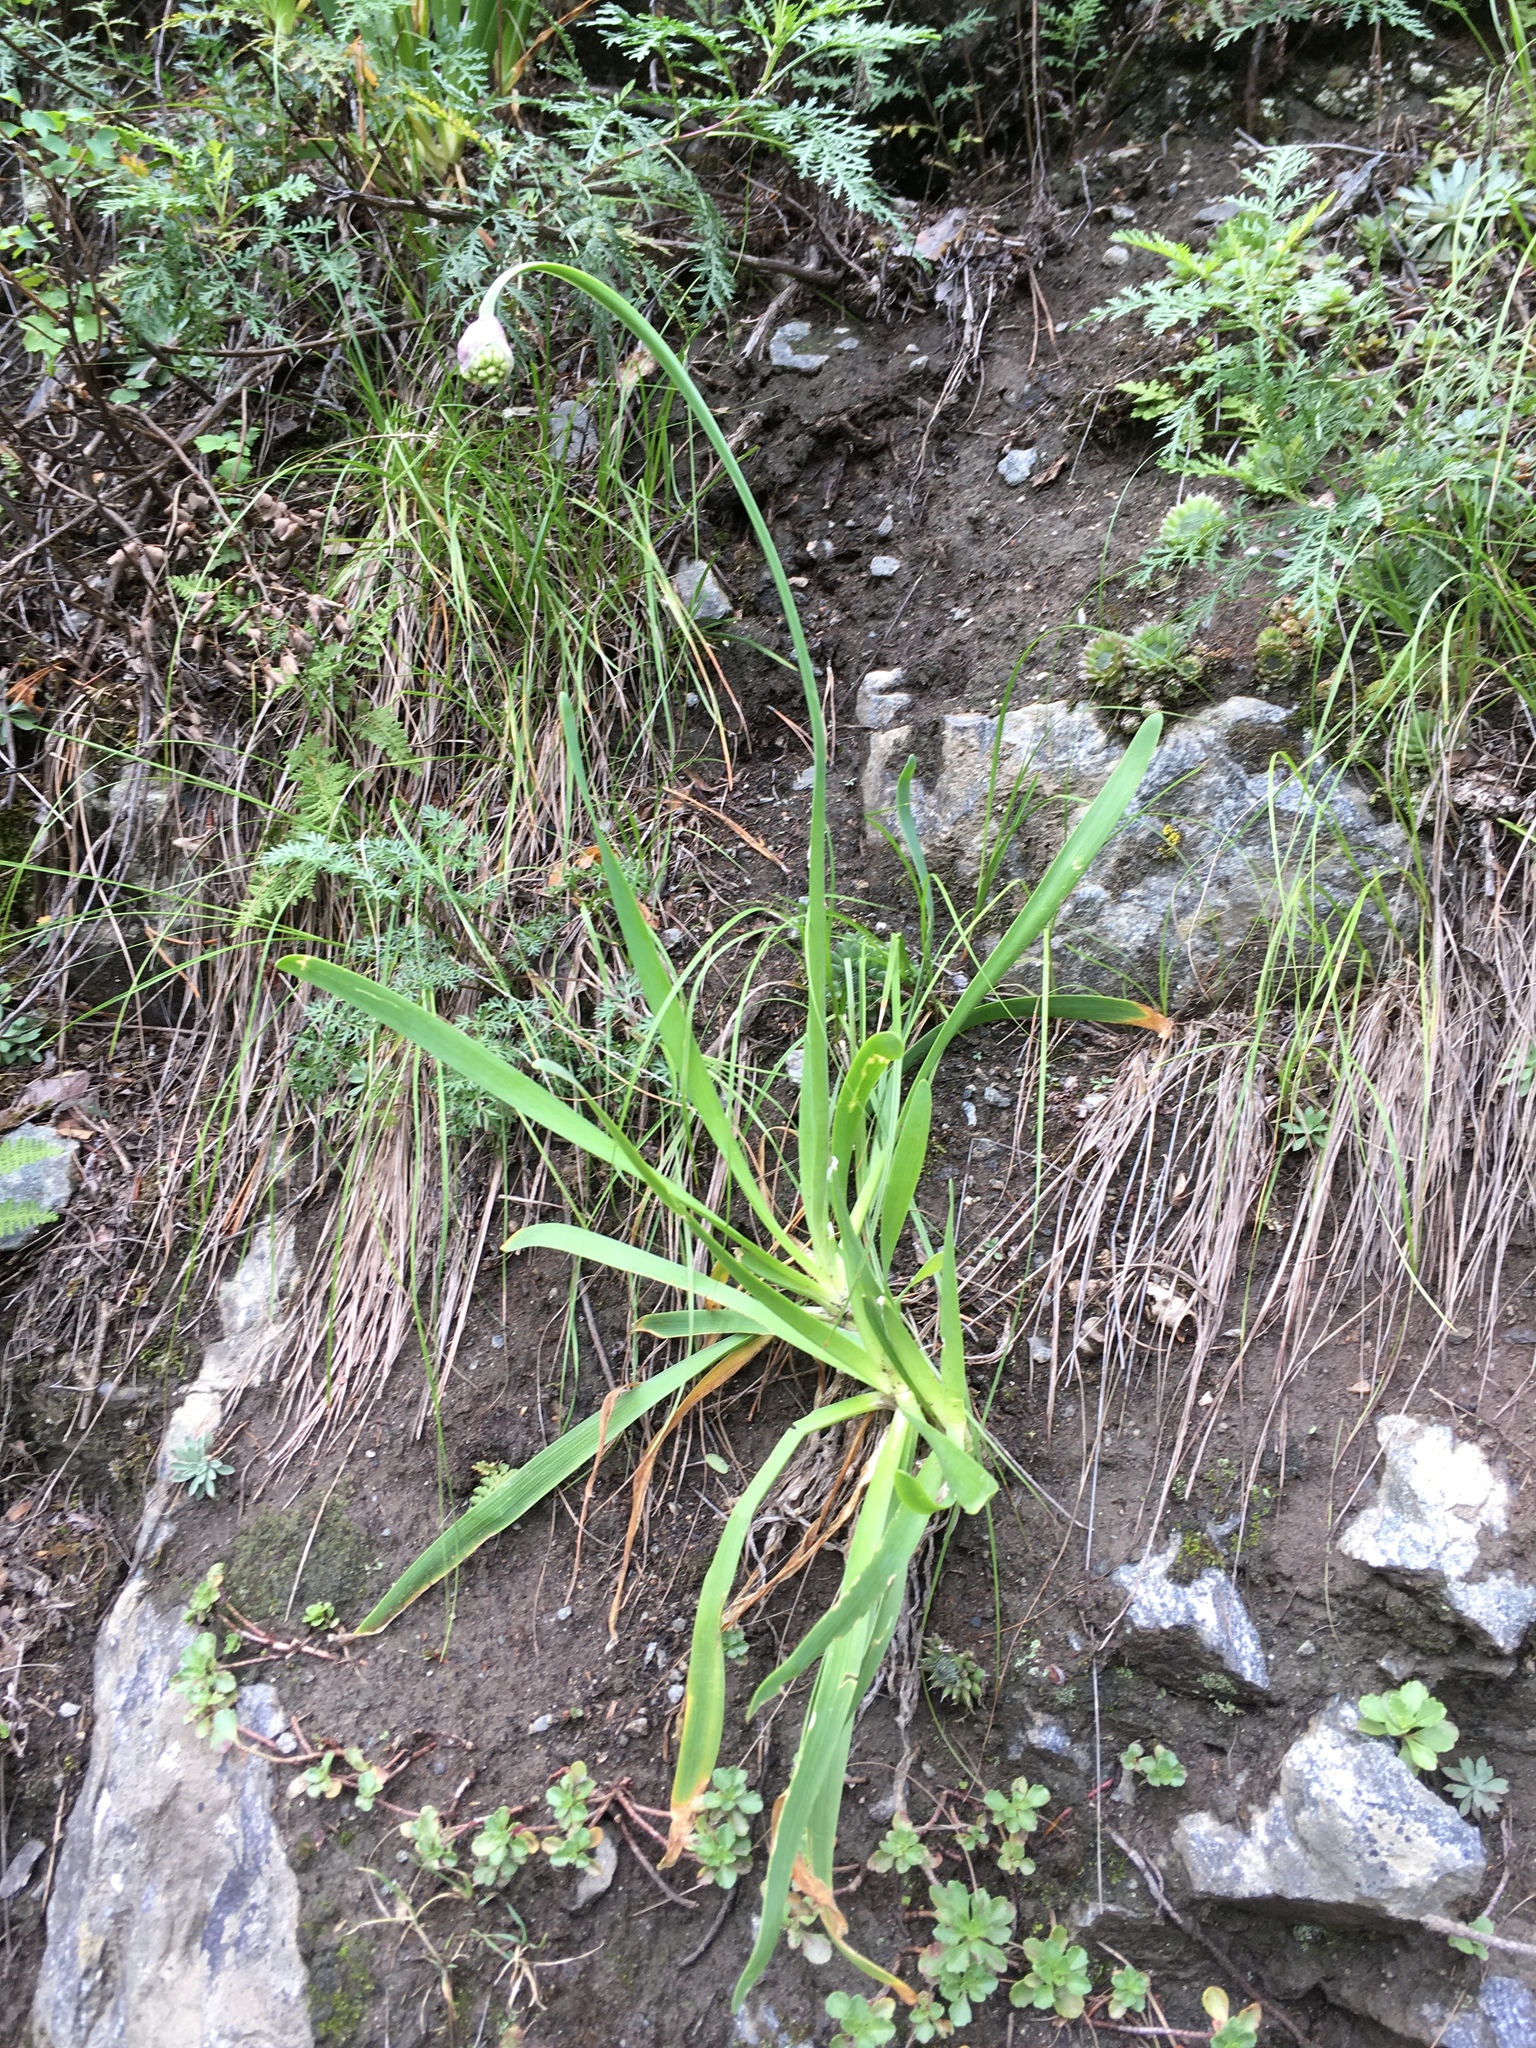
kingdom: Plantae
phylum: Tracheophyta
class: Liliopsida
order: Asparagales
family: Amaryllidaceae
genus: Allium
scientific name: Allium nutans
